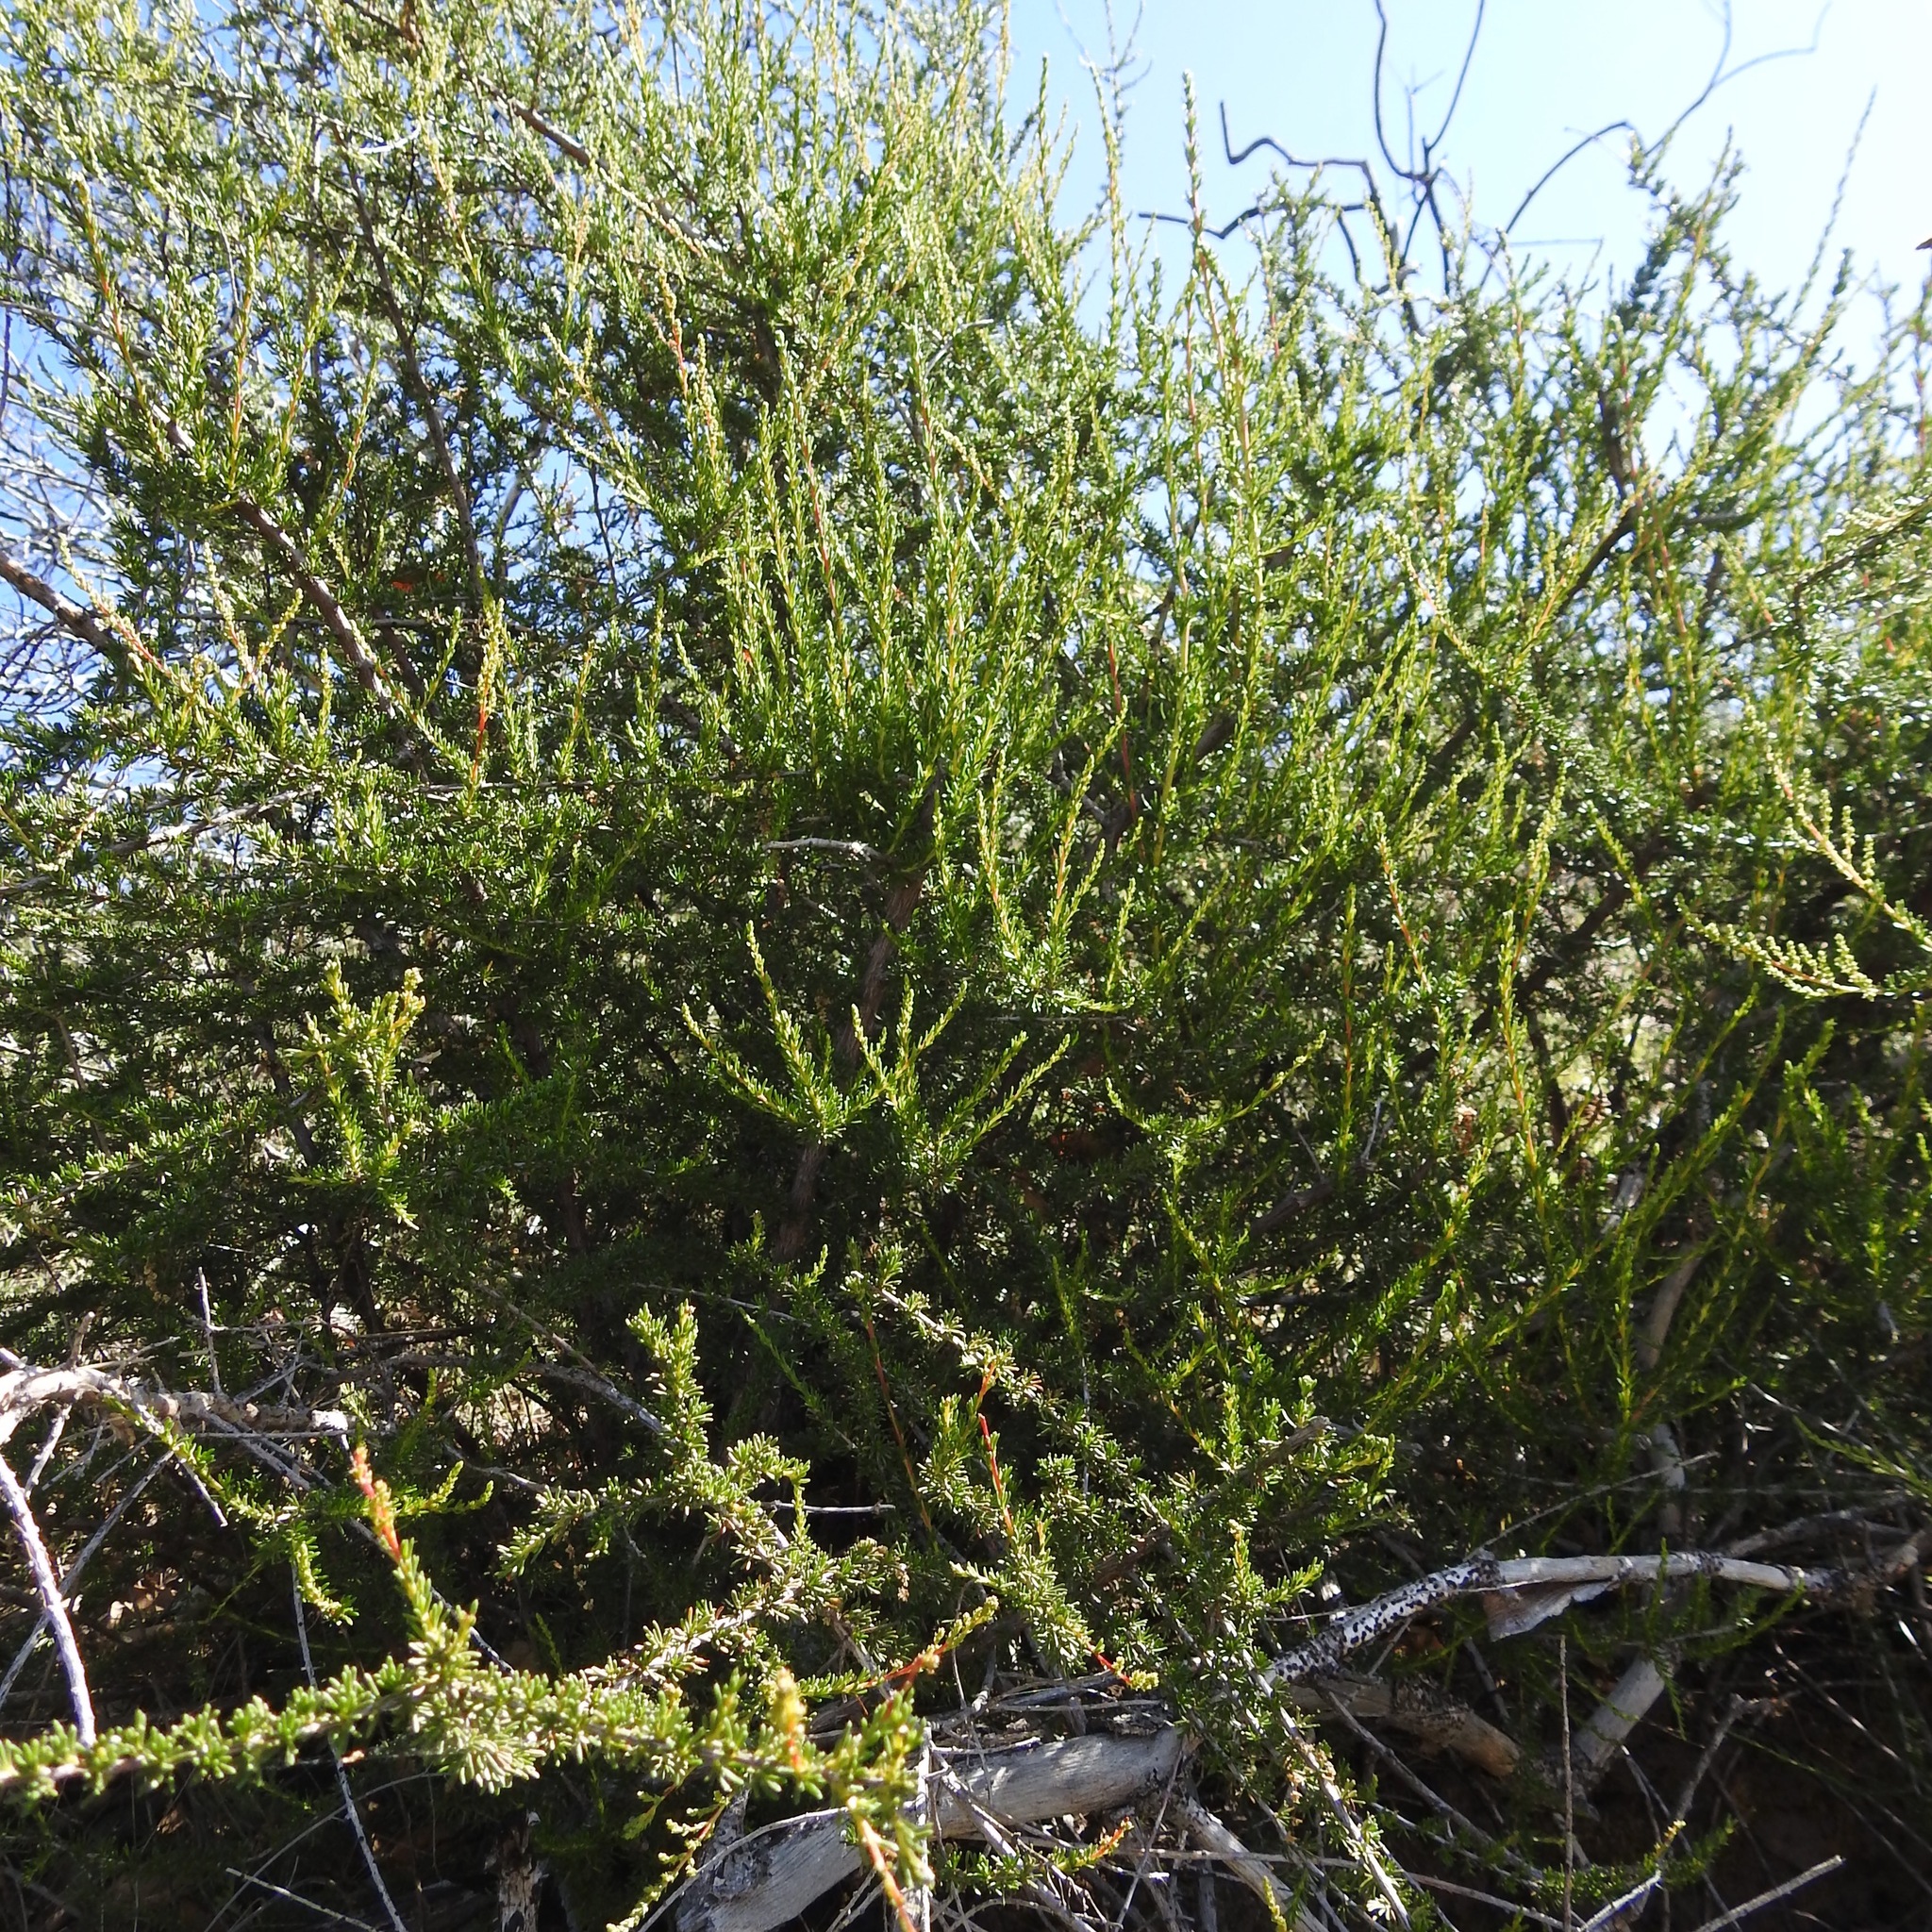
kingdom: Plantae
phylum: Tracheophyta
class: Magnoliopsida
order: Rosales
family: Rosaceae
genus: Adenostoma
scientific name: Adenostoma fasciculatum
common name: Chamise
